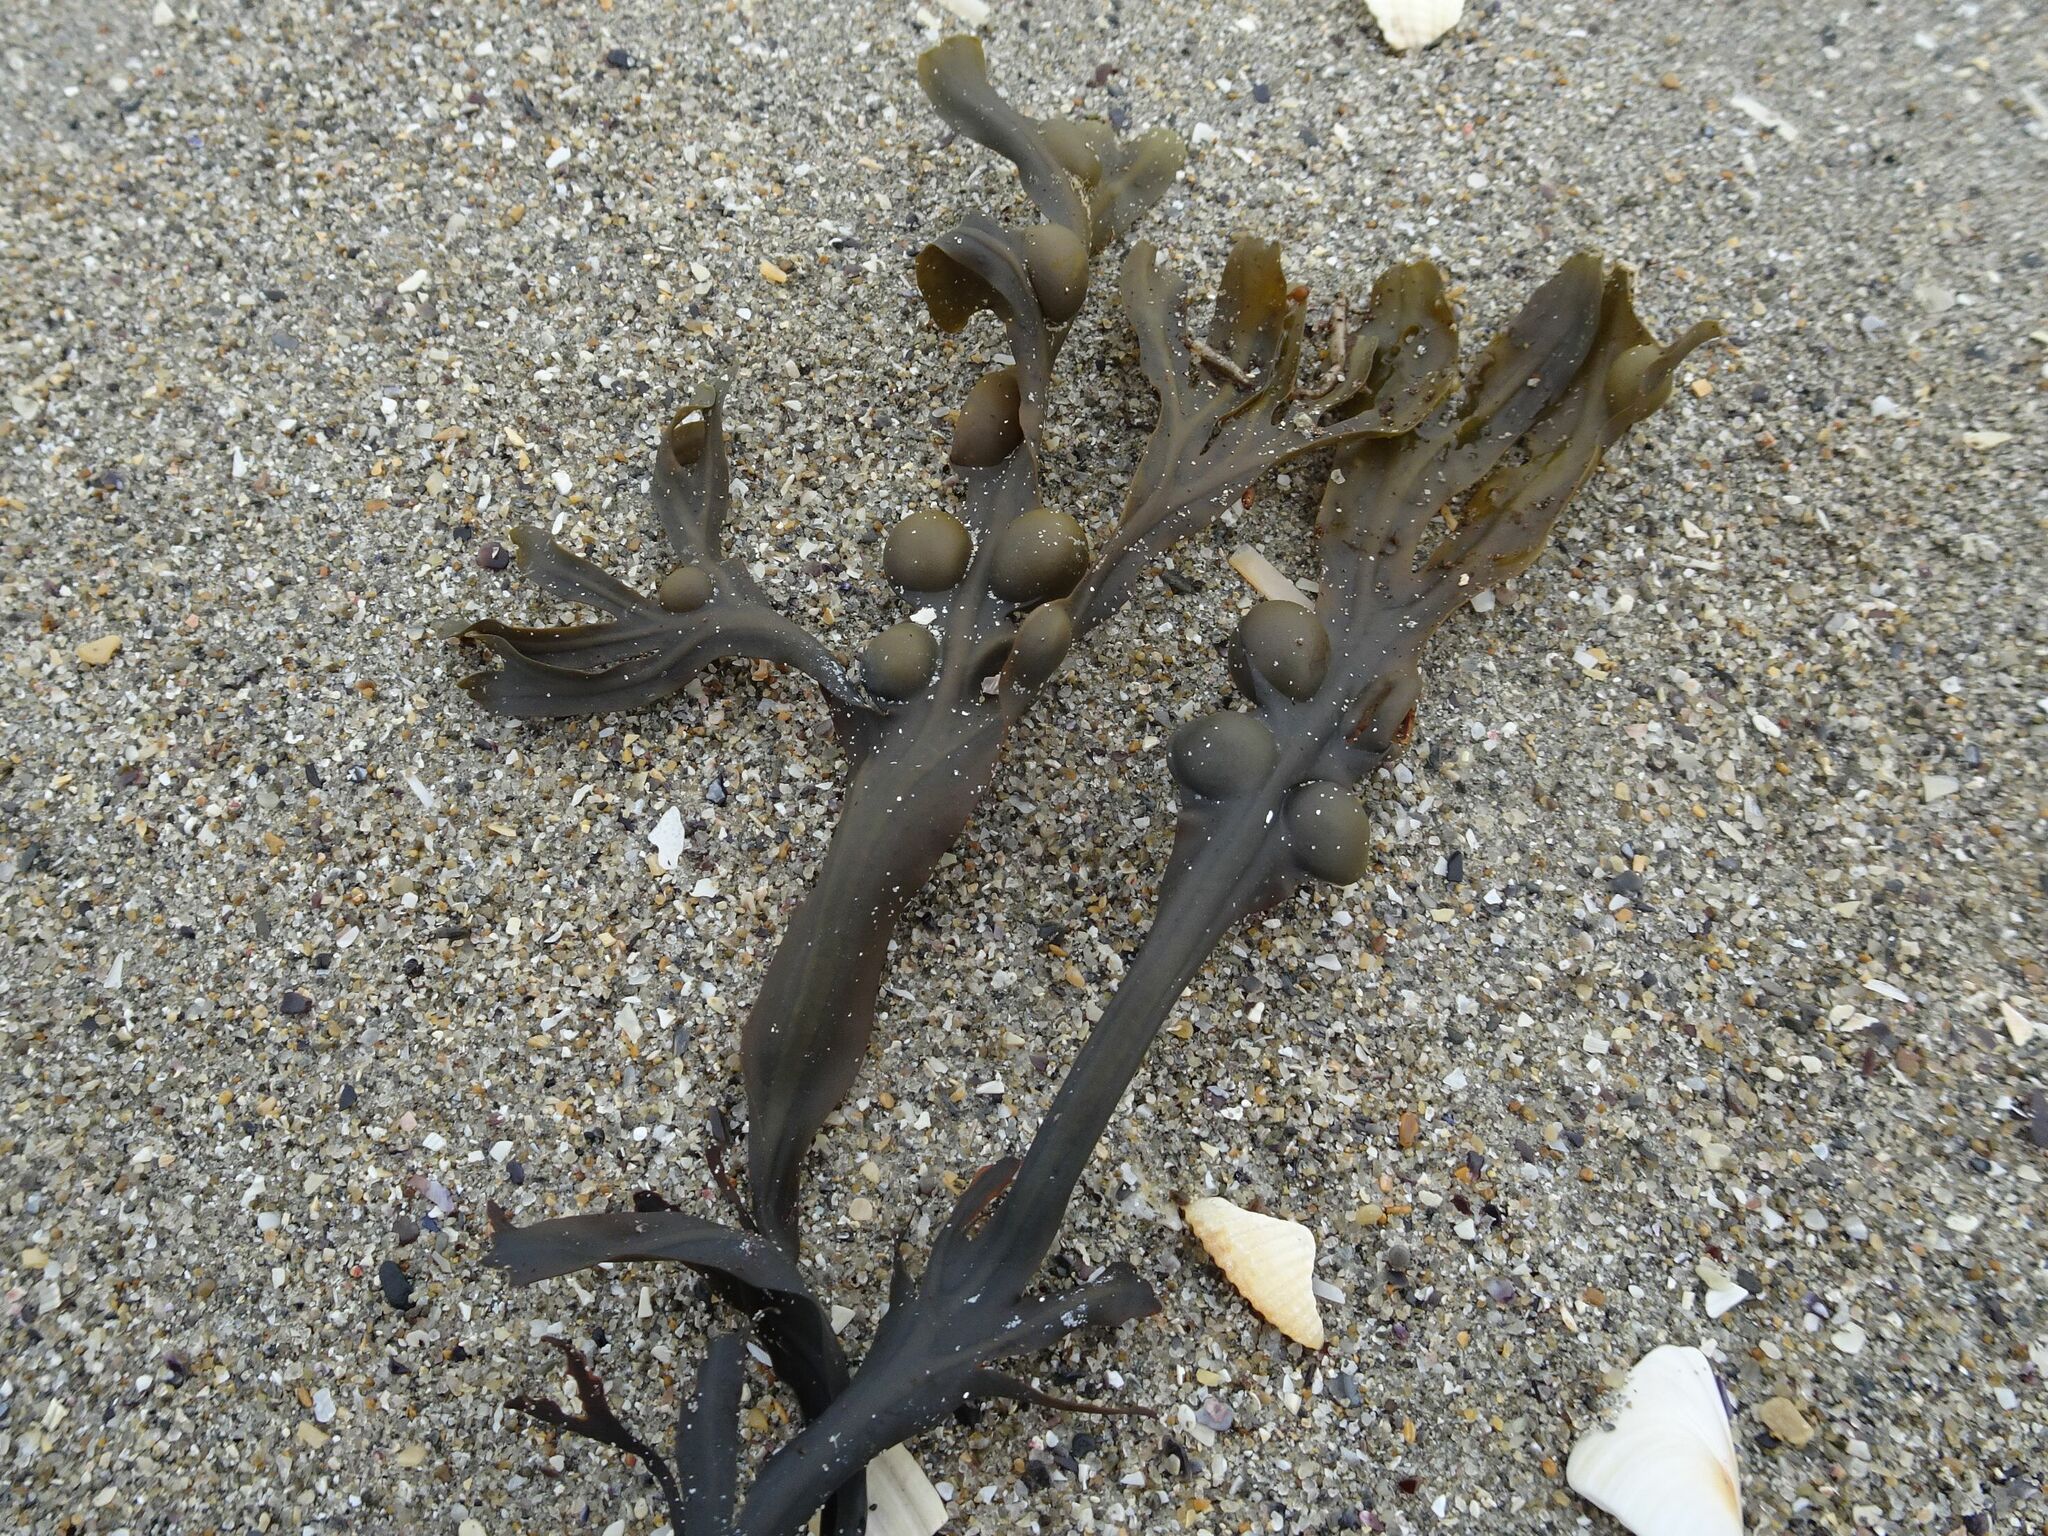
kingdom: Chromista
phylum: Ochrophyta
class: Phaeophyceae
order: Fucales
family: Fucaceae
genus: Fucus
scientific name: Fucus vesiculosus
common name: Bladder wrack
